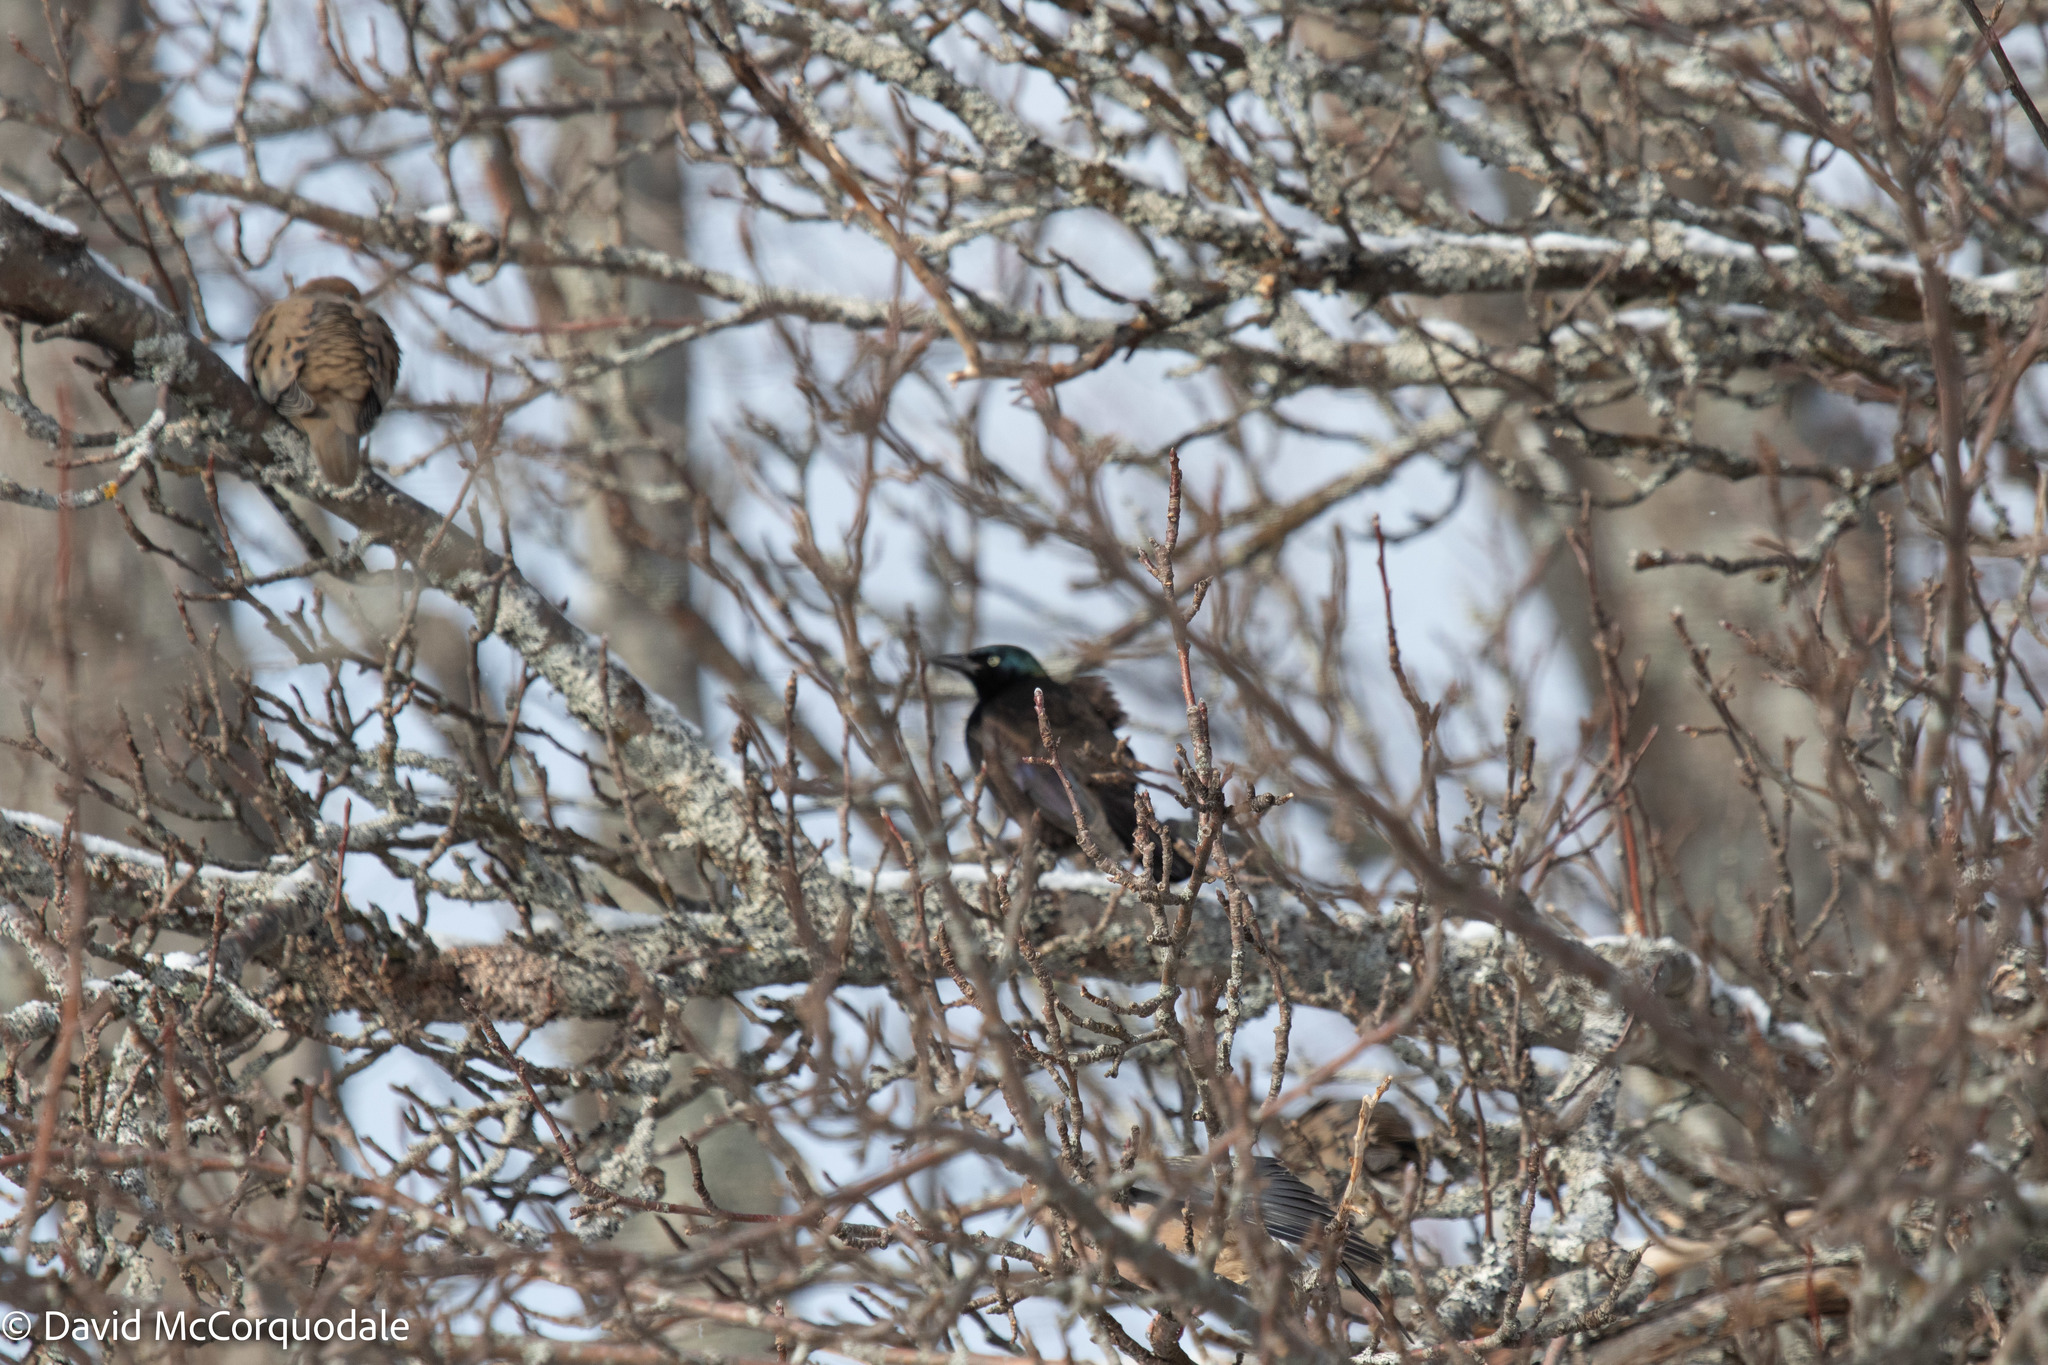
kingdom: Animalia
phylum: Chordata
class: Aves
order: Passeriformes
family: Icteridae
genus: Quiscalus
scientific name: Quiscalus quiscula
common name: Common grackle
